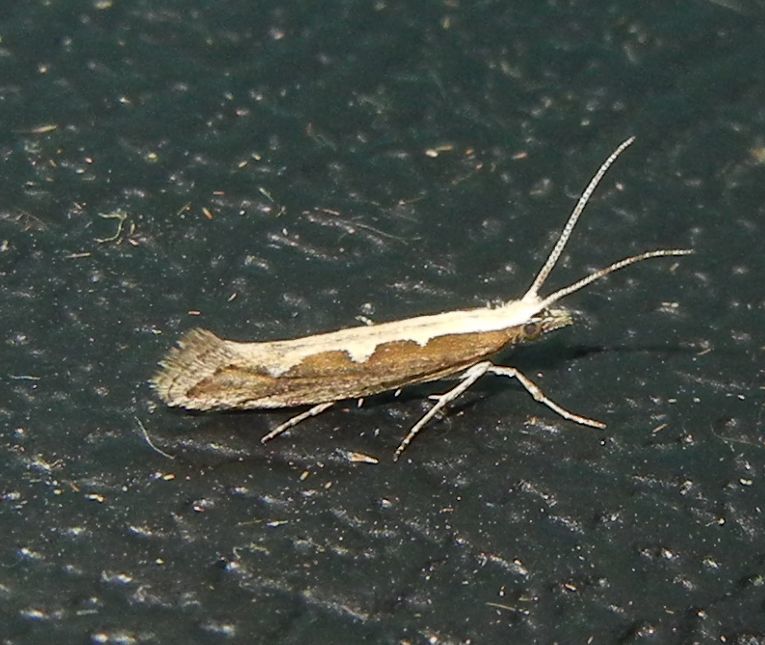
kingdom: Animalia
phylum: Arthropoda
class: Insecta
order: Lepidoptera
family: Plutellidae
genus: Plutella
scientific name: Plutella xylostella
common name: Diamond-back moth
